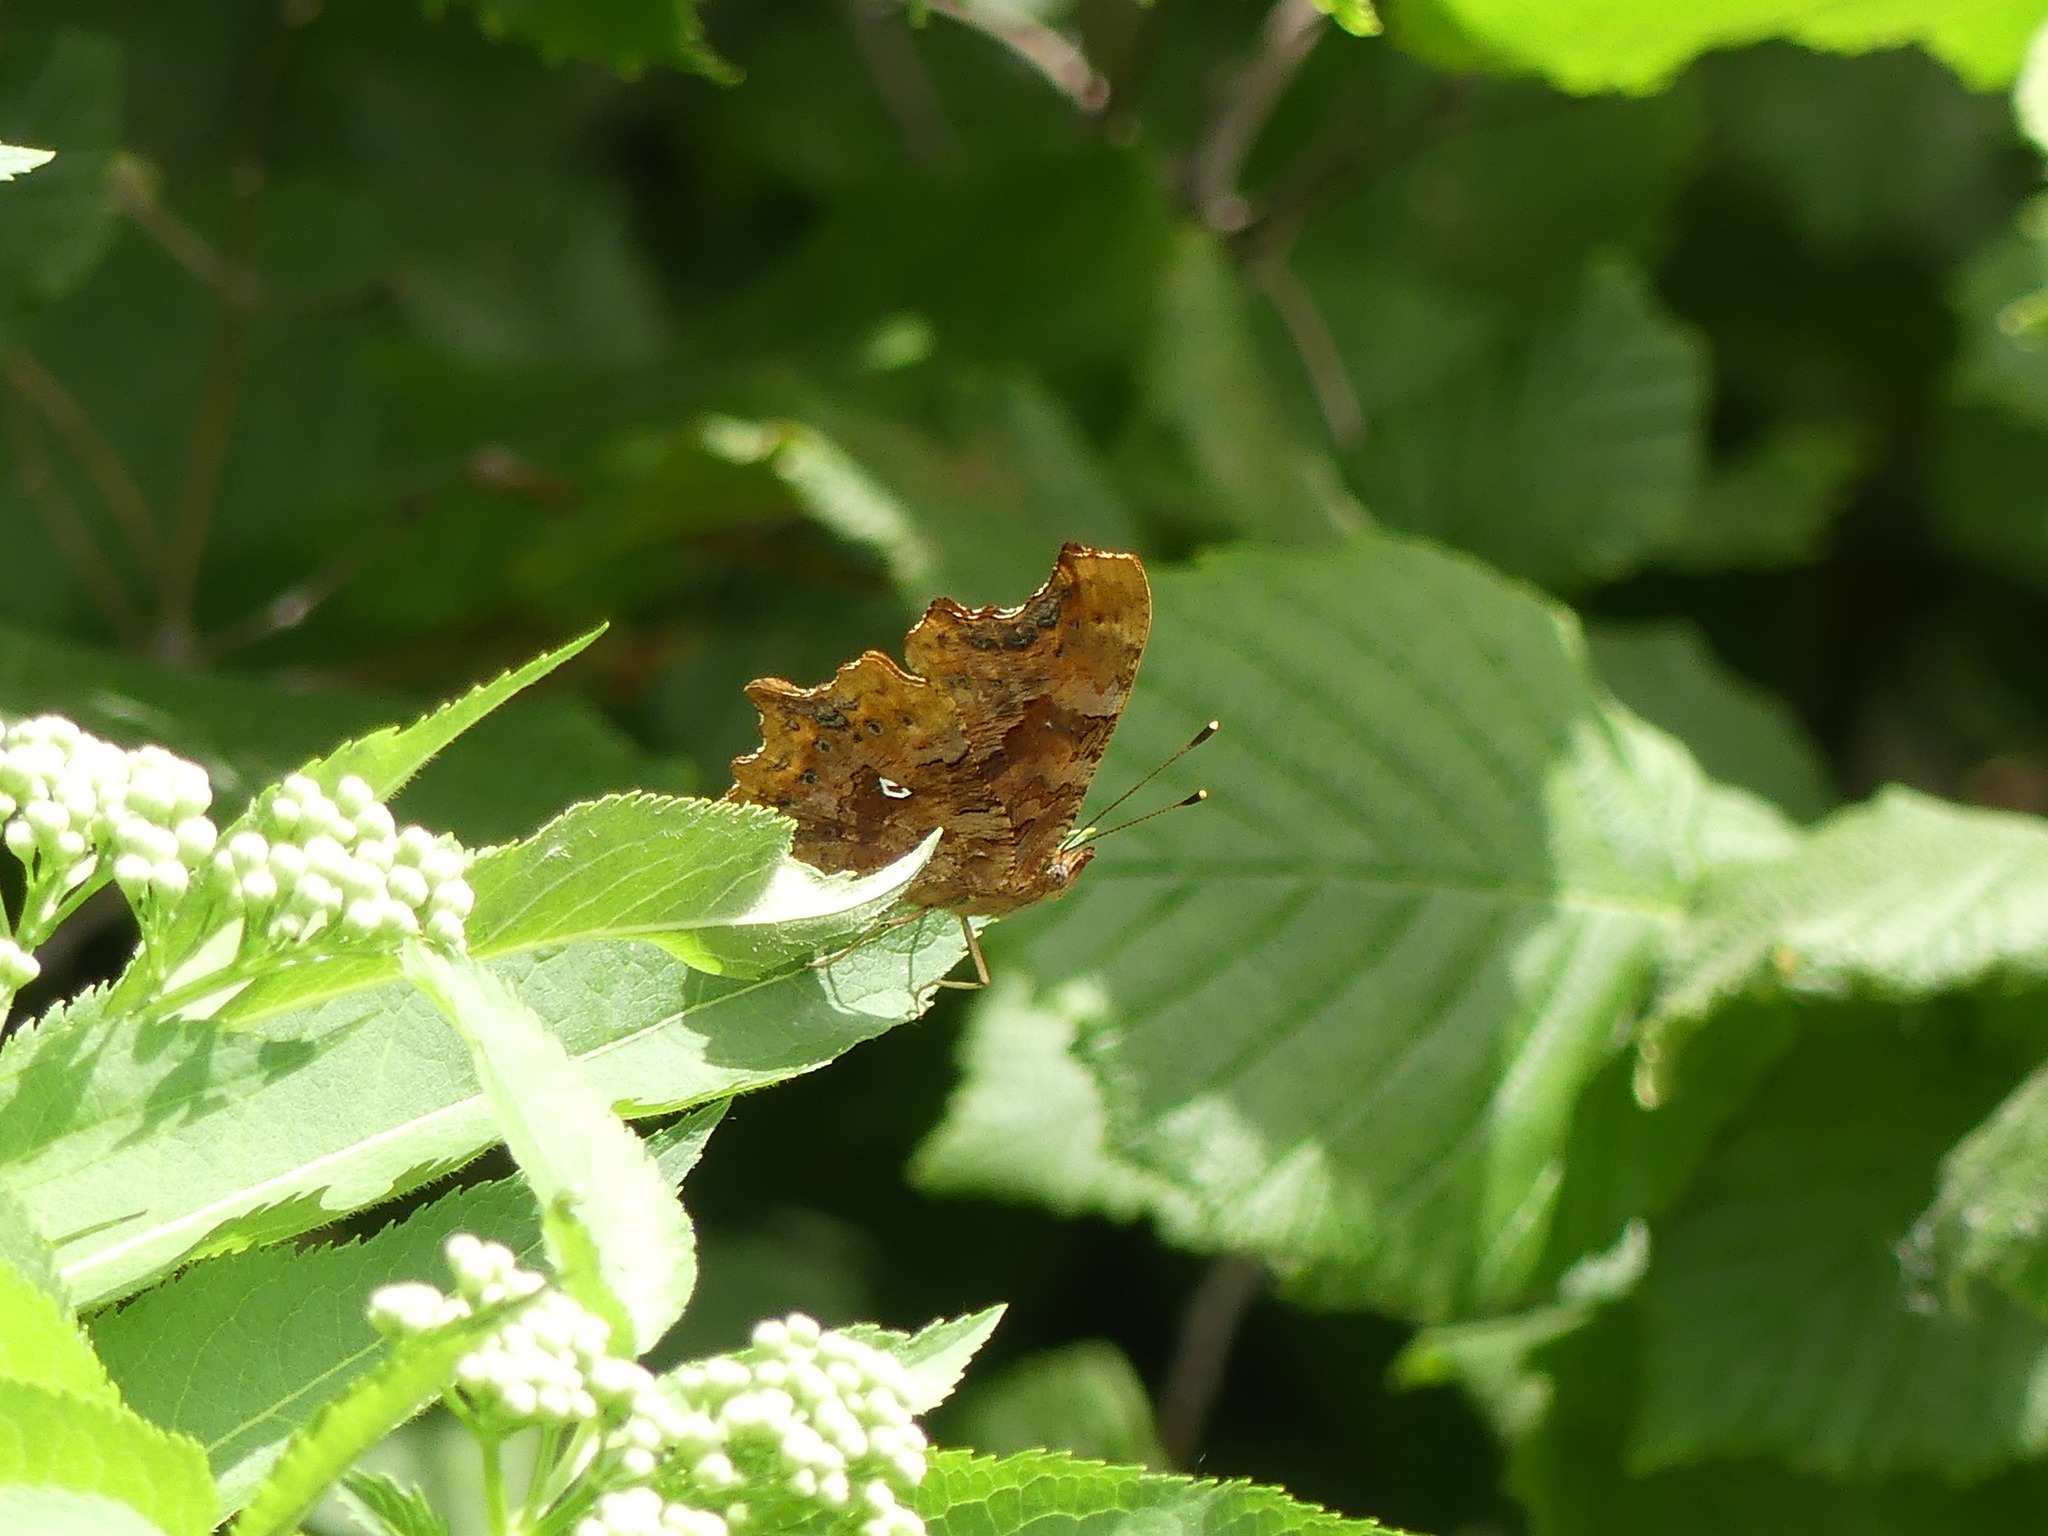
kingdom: Animalia
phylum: Arthropoda
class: Insecta
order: Lepidoptera
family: Nymphalidae
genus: Polygonia
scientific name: Polygonia c-album
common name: Comma
